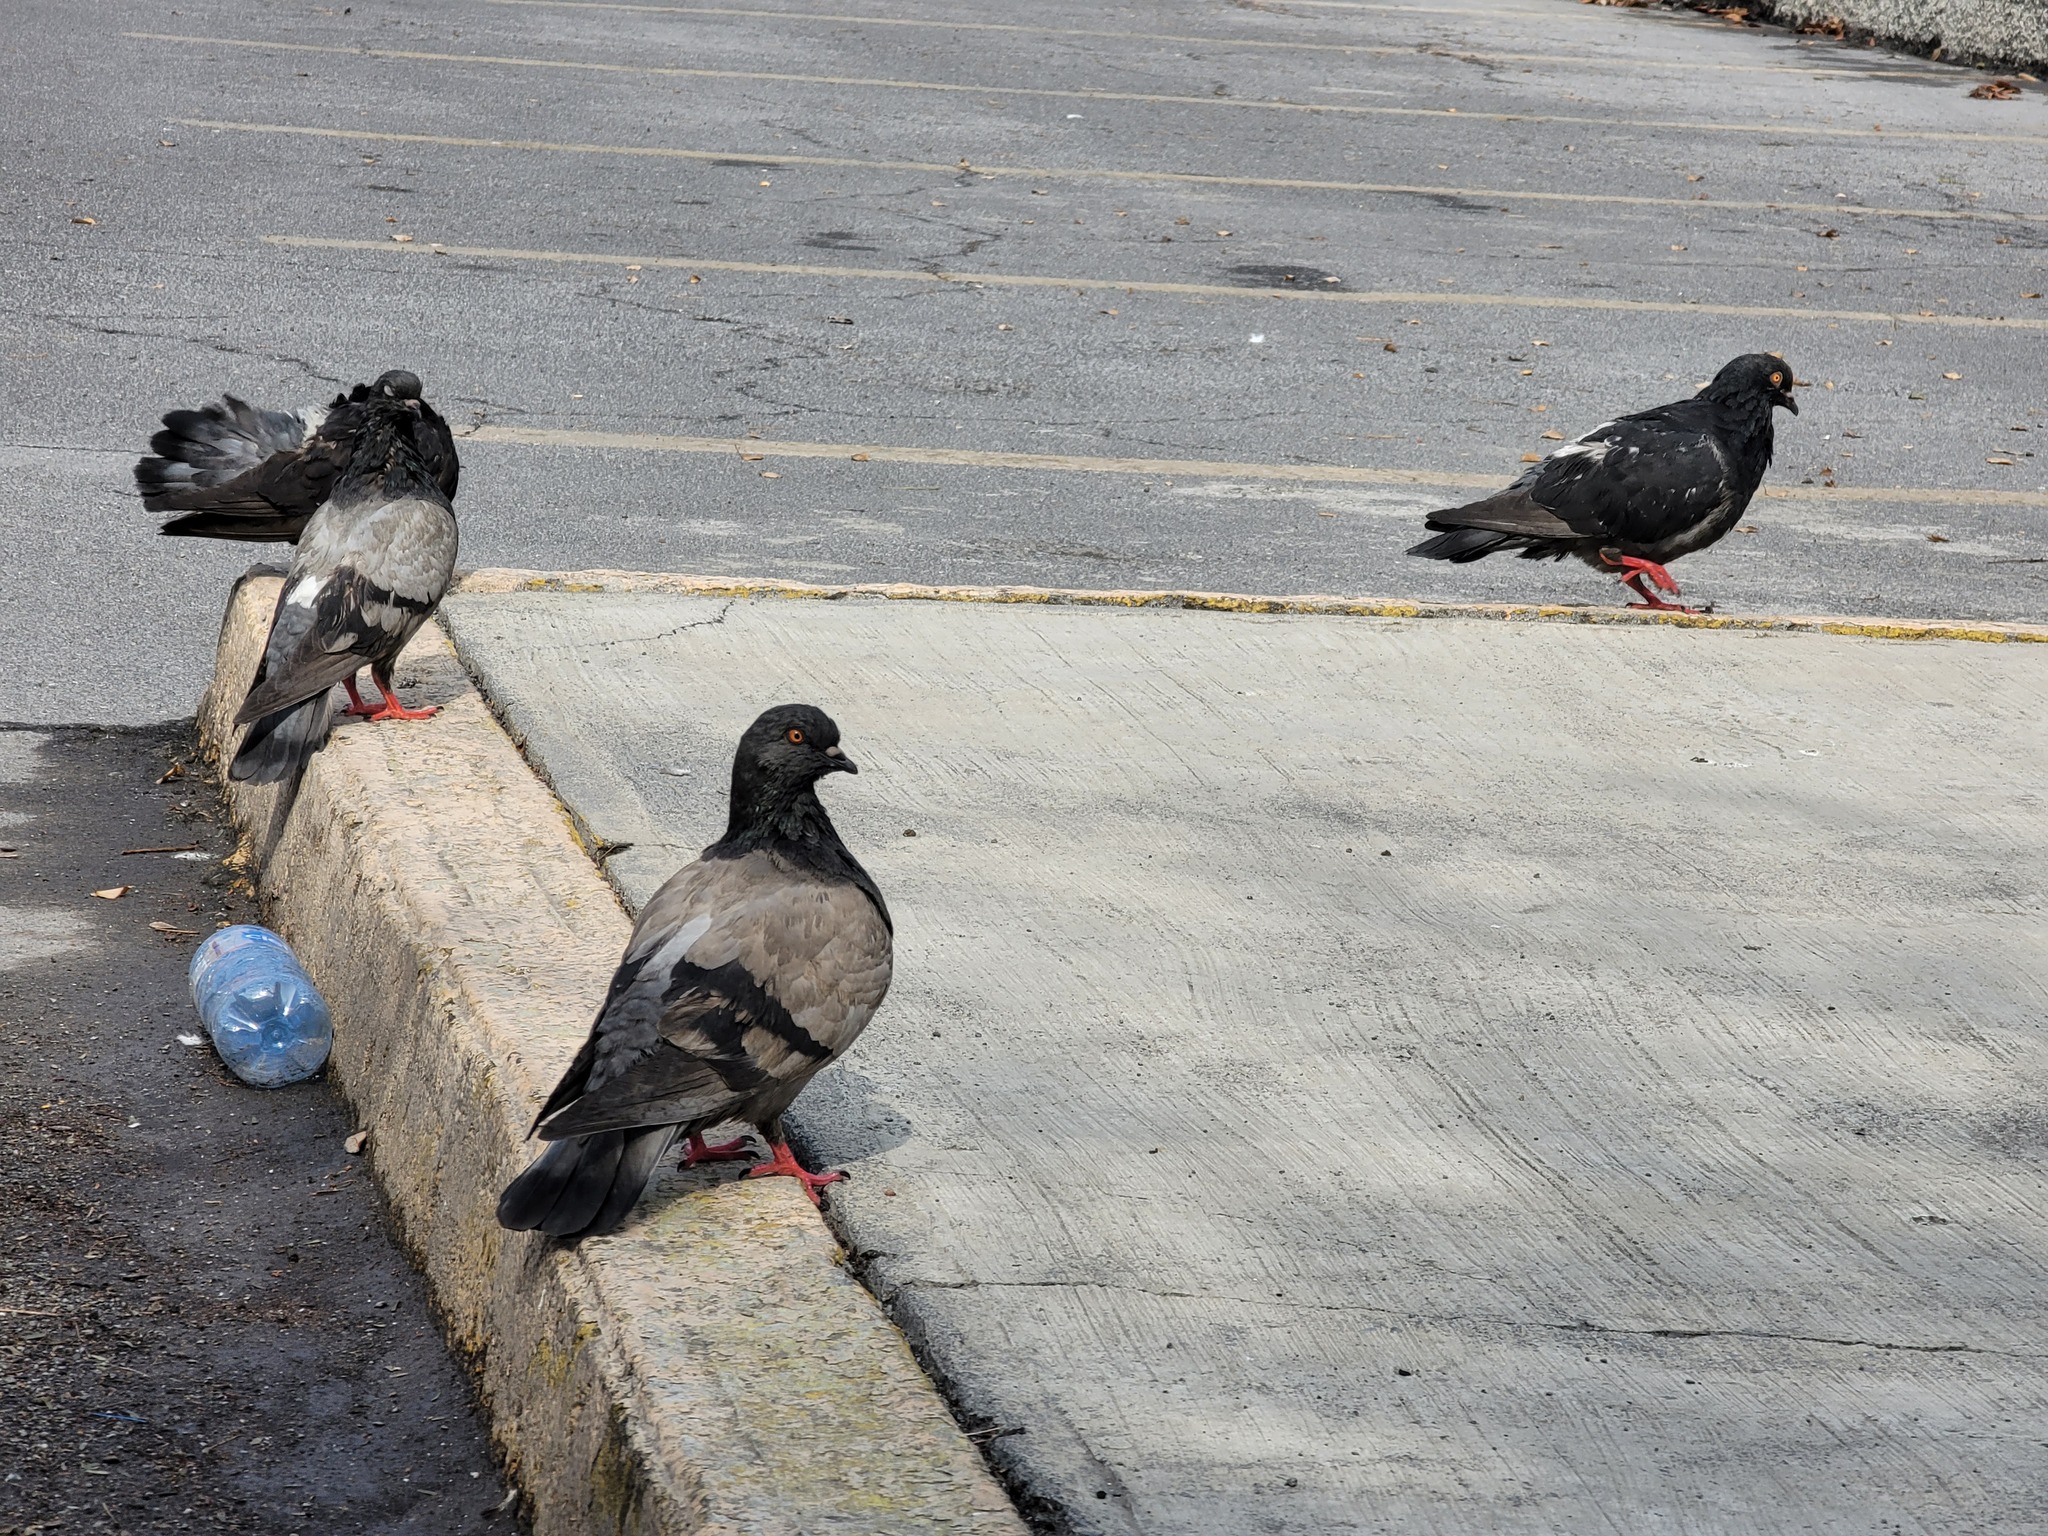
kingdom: Animalia
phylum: Chordata
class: Aves
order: Columbiformes
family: Columbidae
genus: Columba
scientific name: Columba livia
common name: Rock pigeon
